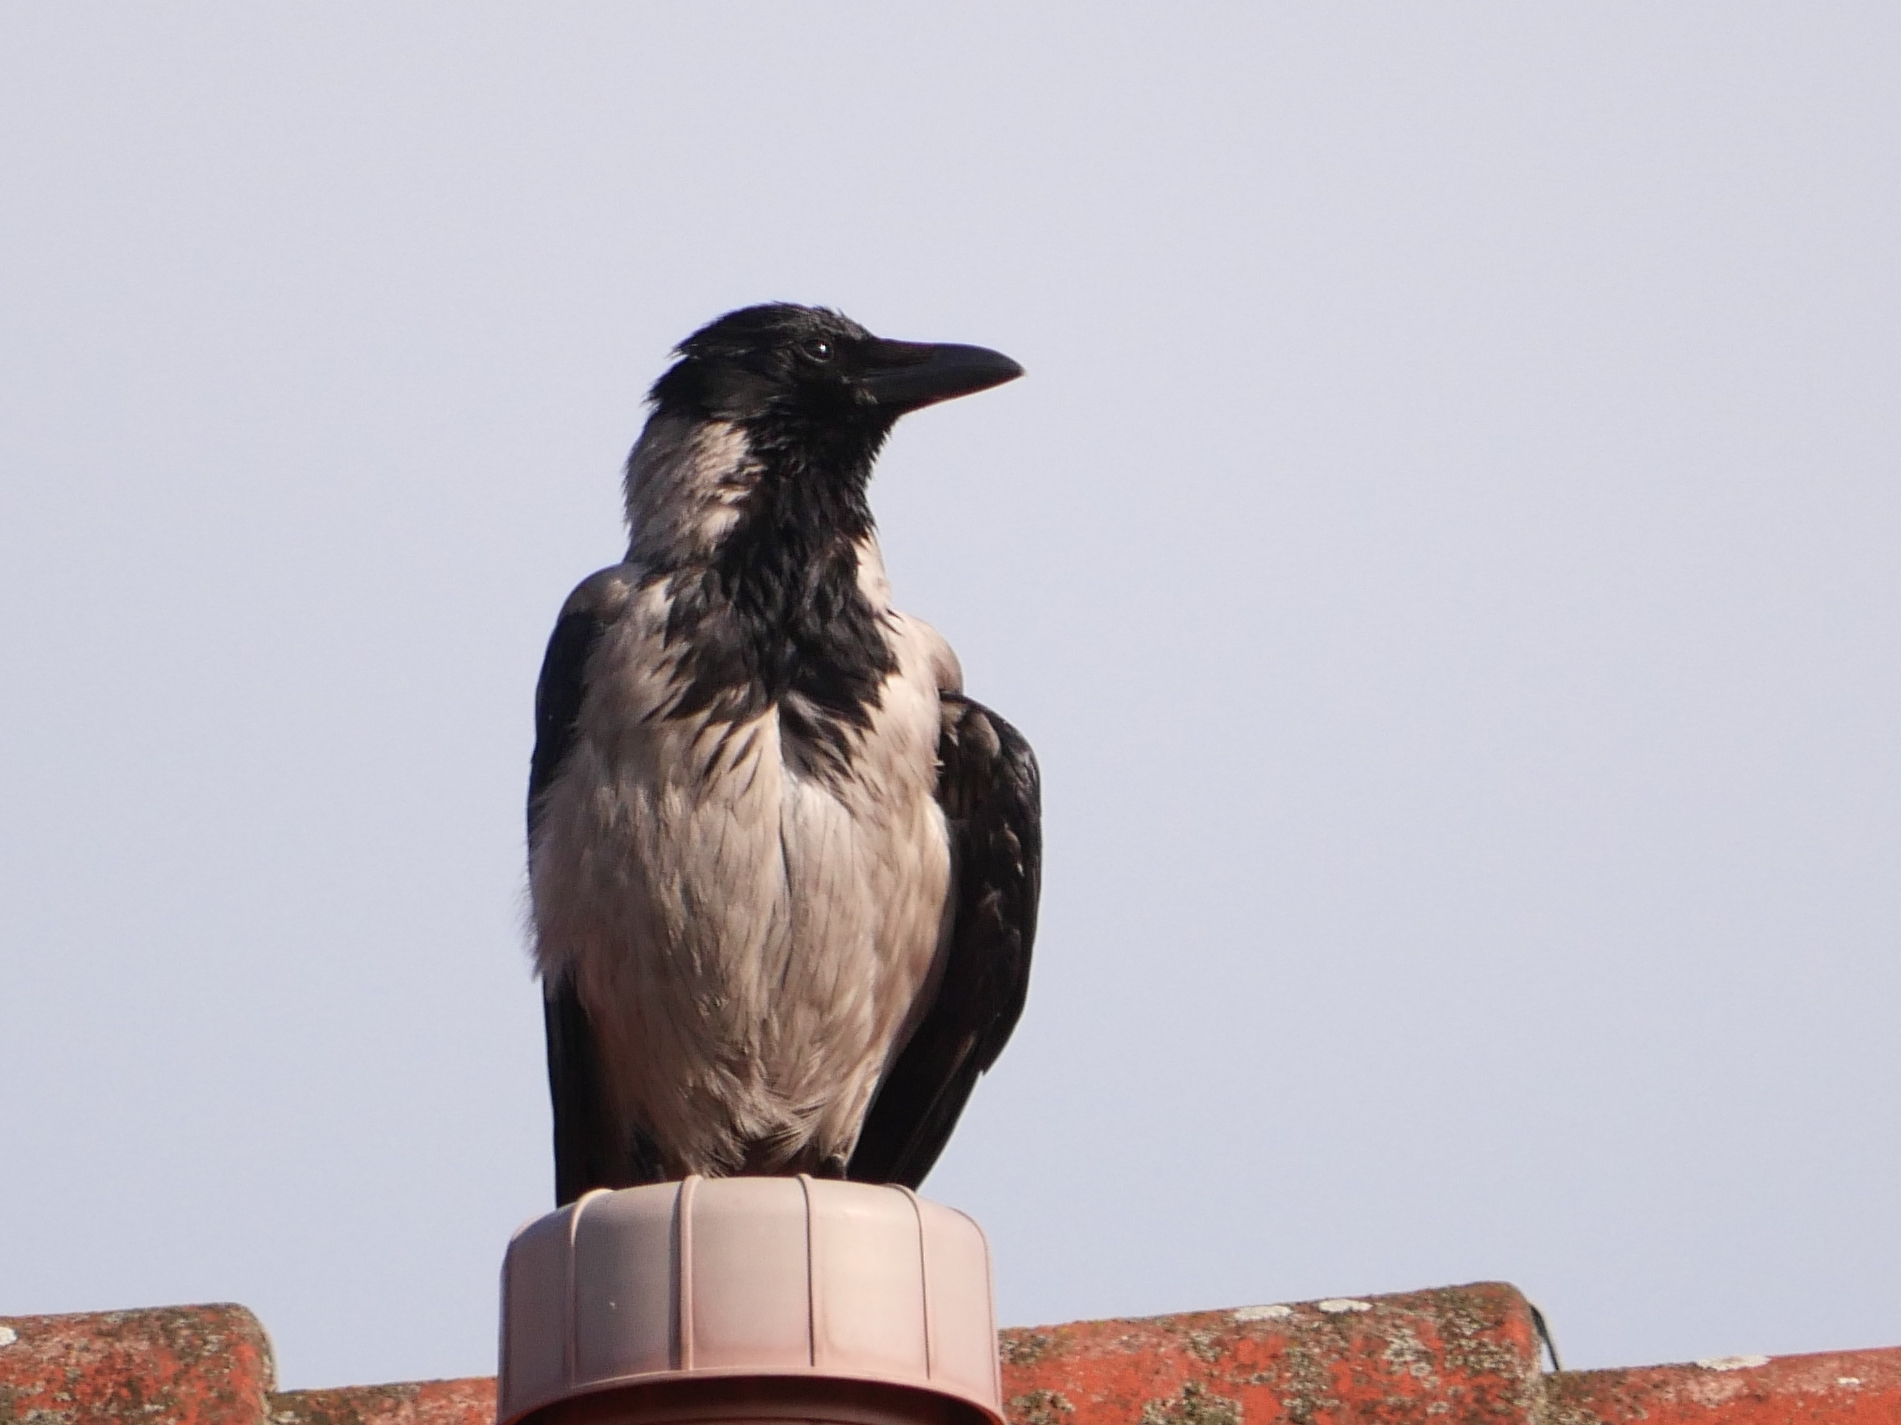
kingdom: Animalia
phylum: Chordata
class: Aves
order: Passeriformes
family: Corvidae
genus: Corvus
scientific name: Corvus cornix
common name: Hooded crow
